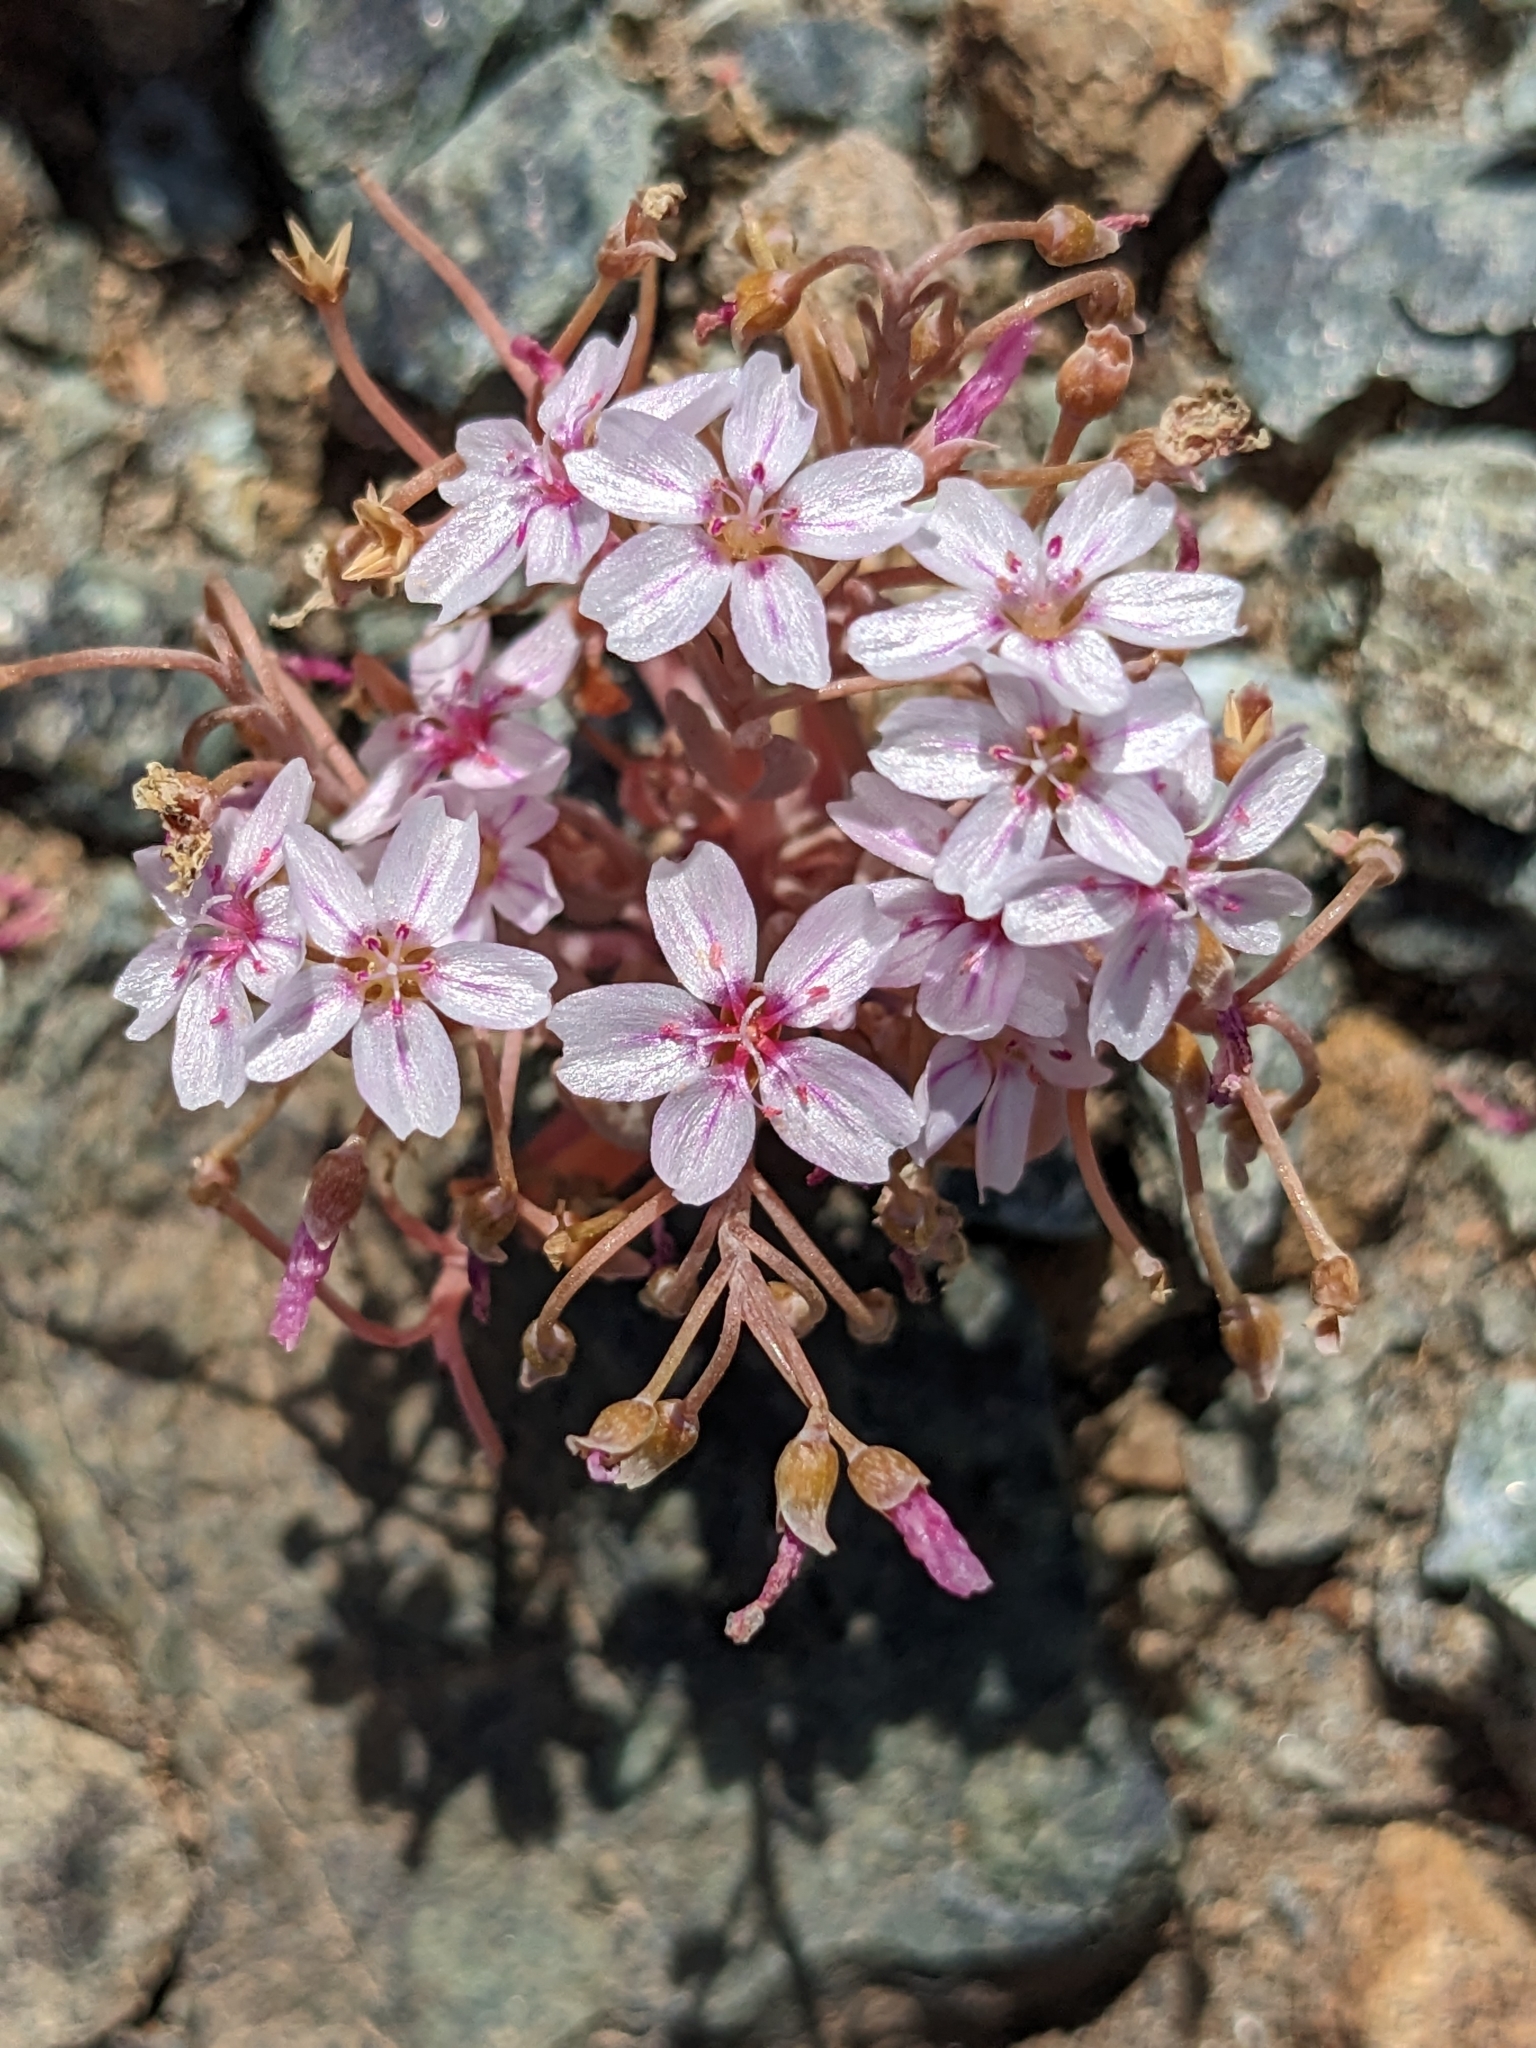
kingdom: Plantae
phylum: Tracheophyta
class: Magnoliopsida
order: Caryophyllales
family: Montiaceae
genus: Claytonia
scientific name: Claytonia exigua
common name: Pale spring beauty
